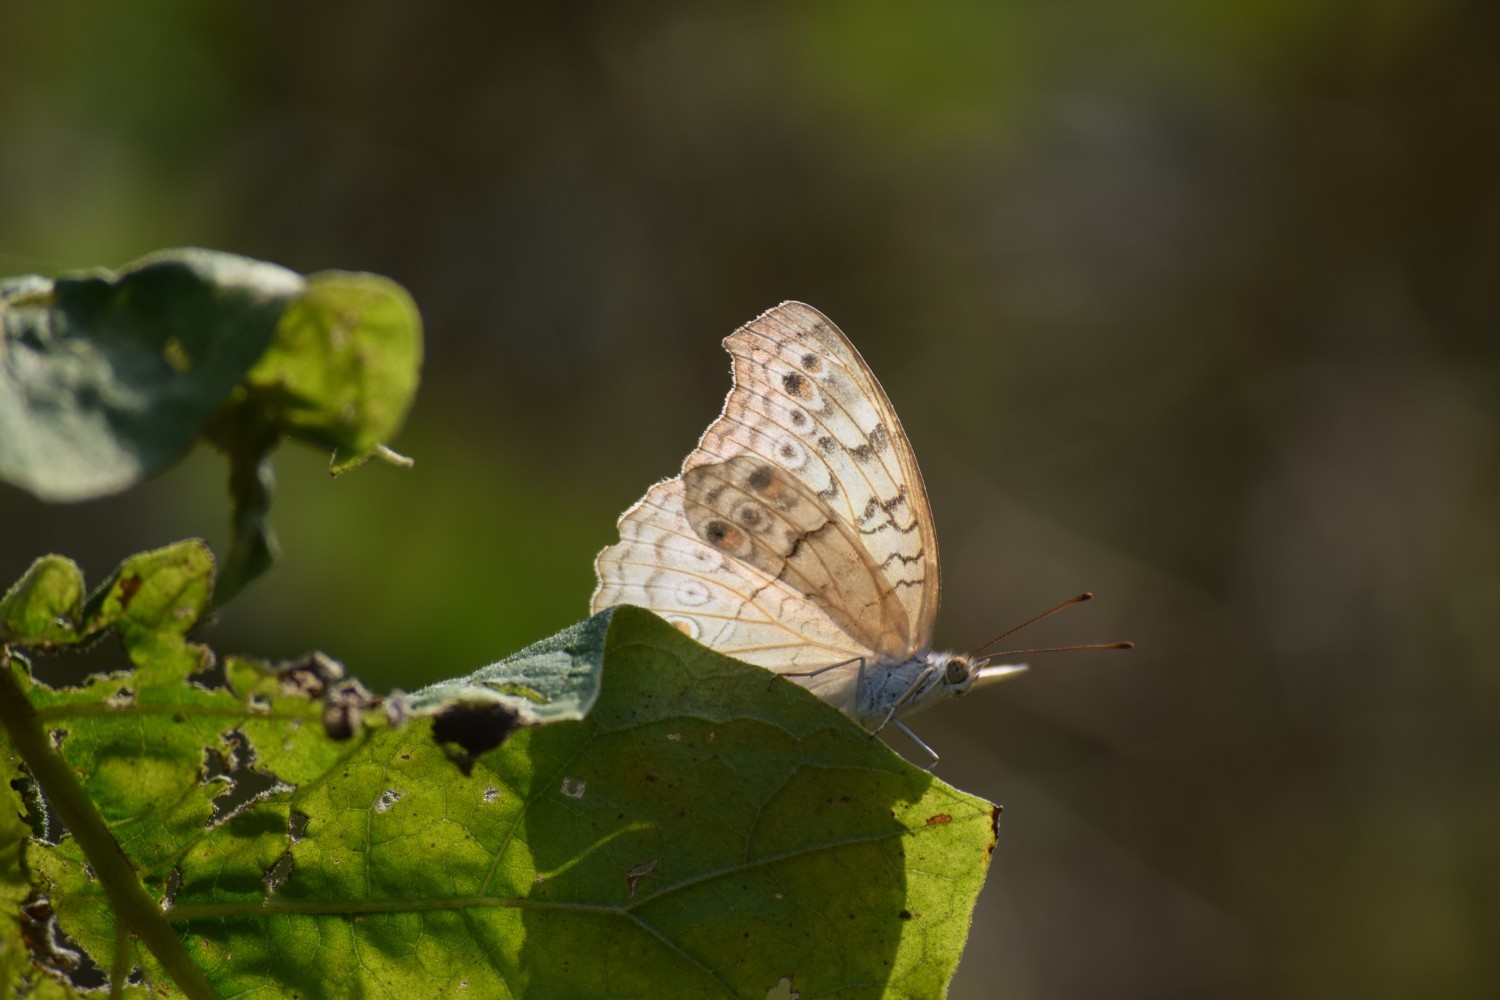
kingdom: Animalia
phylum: Arthropoda
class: Insecta
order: Lepidoptera
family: Nymphalidae
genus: Junonia
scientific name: Junonia atlites
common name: Grey pansy
